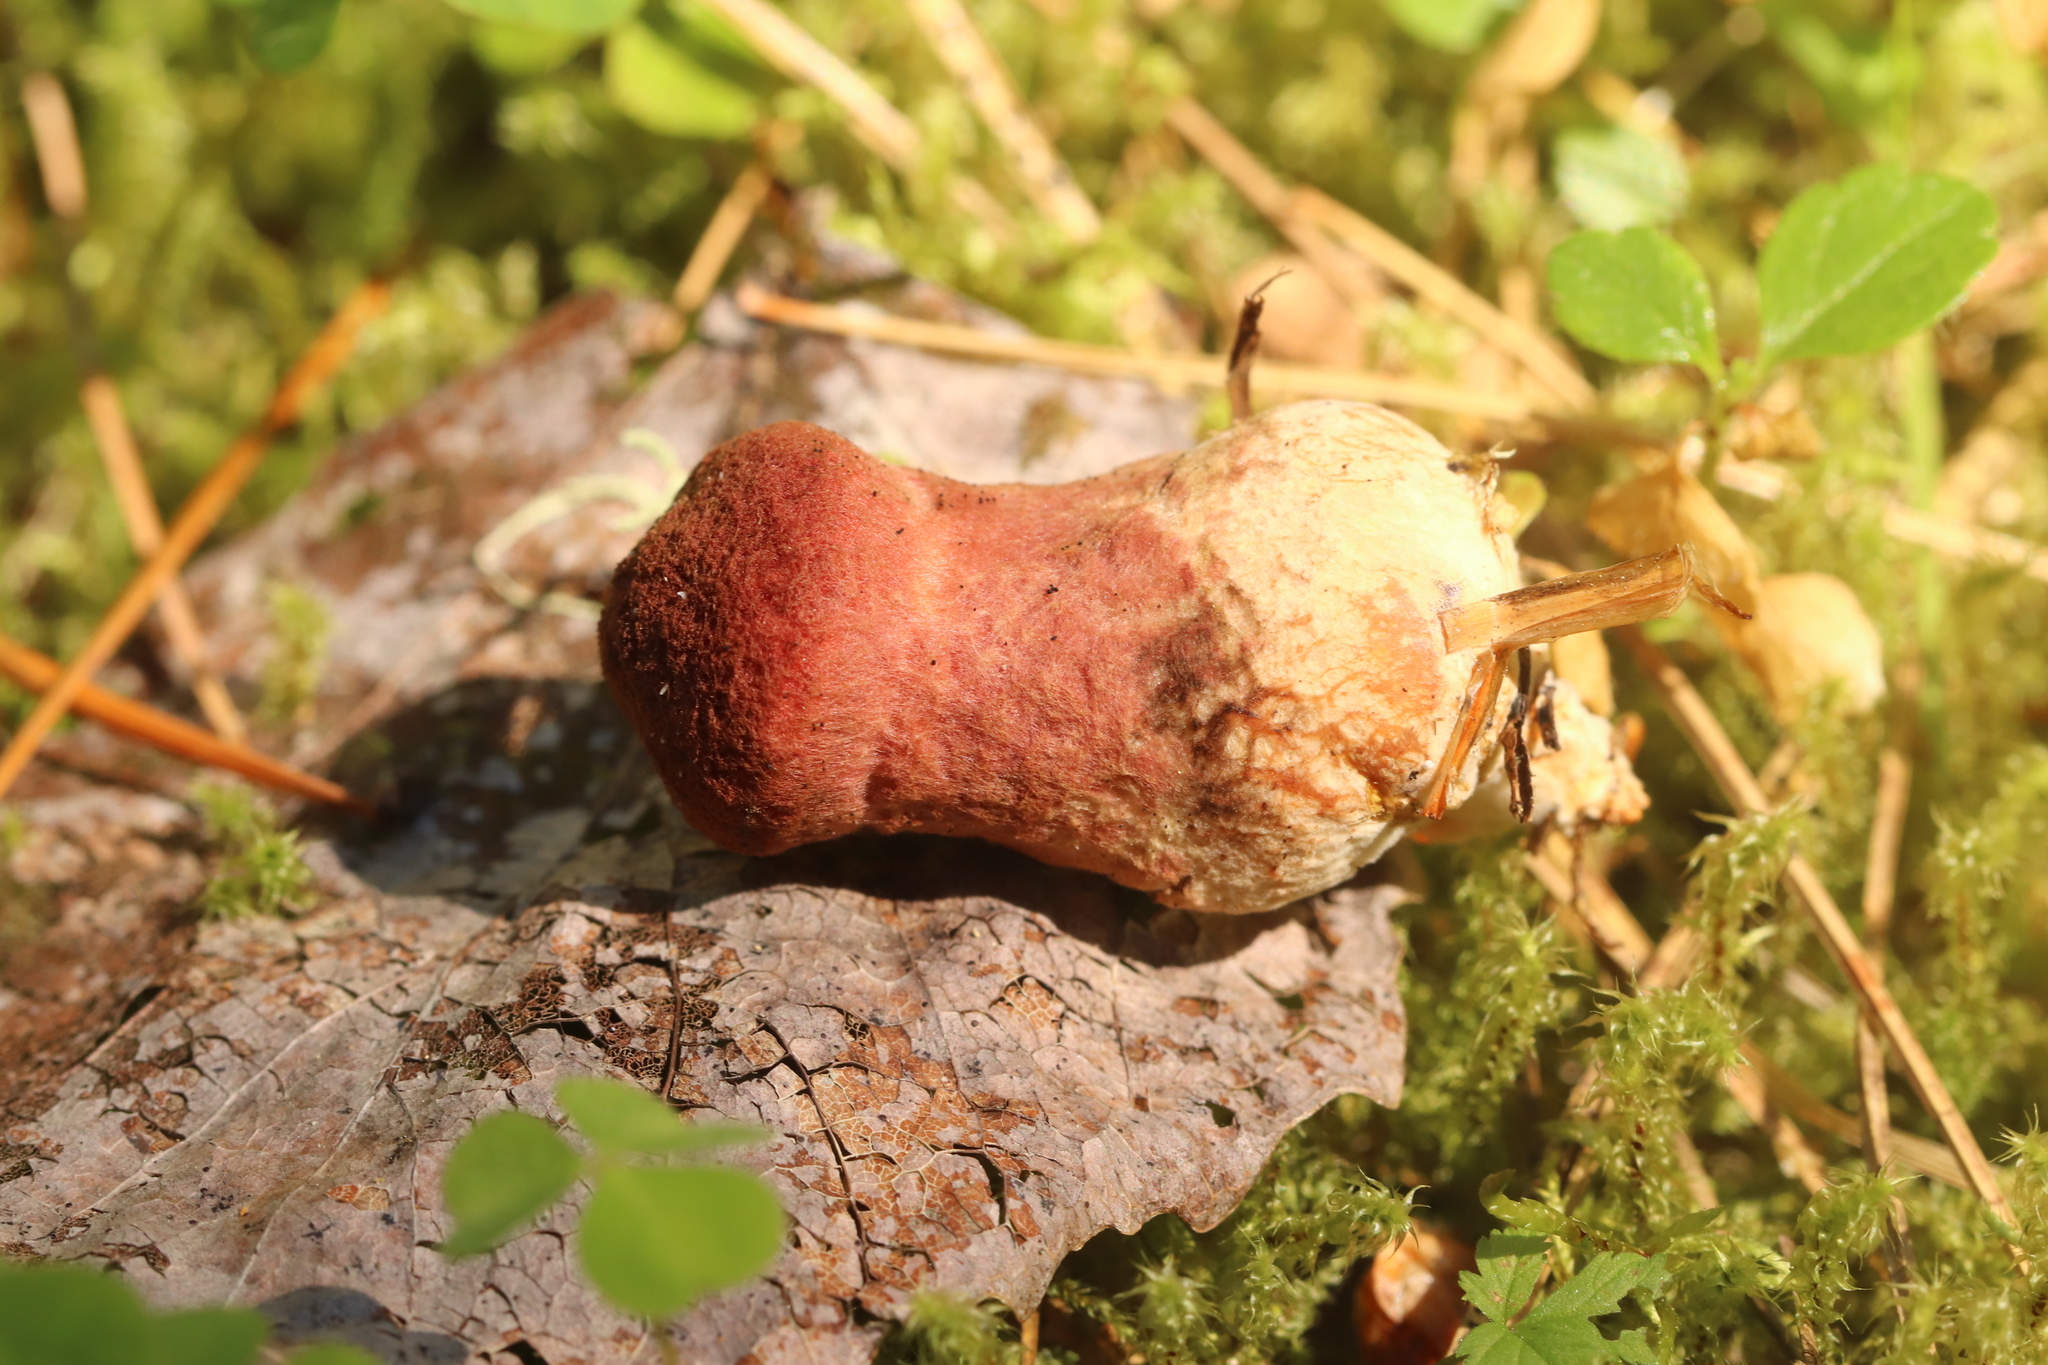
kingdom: Fungi
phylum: Basidiomycota
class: Agaricomycetes
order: Boletales
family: Suillaceae
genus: Suillus
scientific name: Suillus spraguei
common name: Painted suillus
